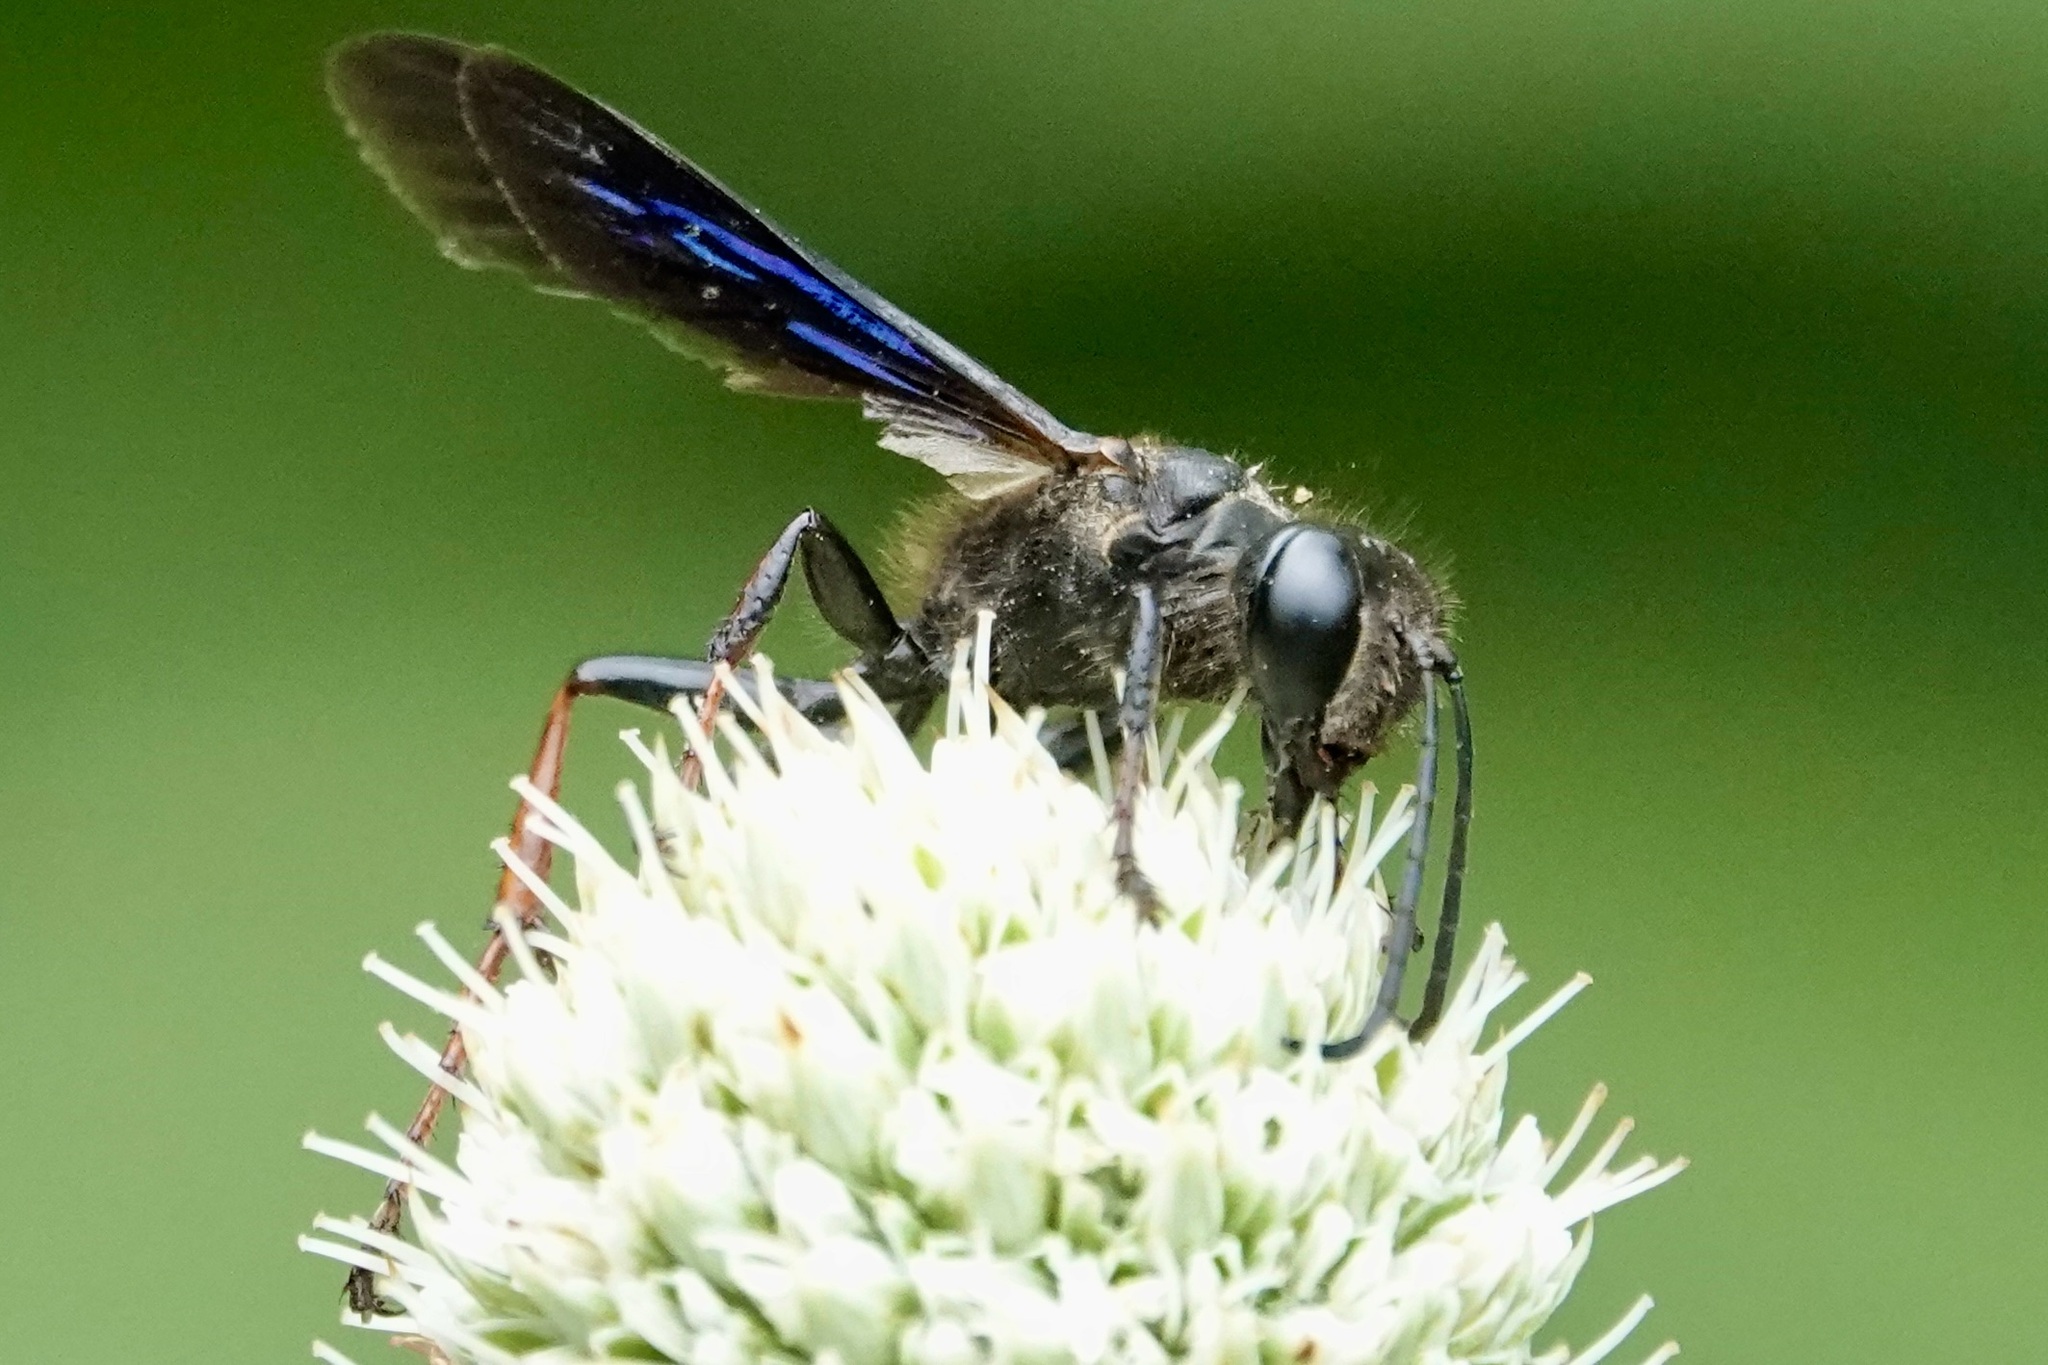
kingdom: Animalia
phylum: Arthropoda
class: Insecta
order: Hymenoptera
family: Sphecidae
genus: Isodontia
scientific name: Isodontia auripes
